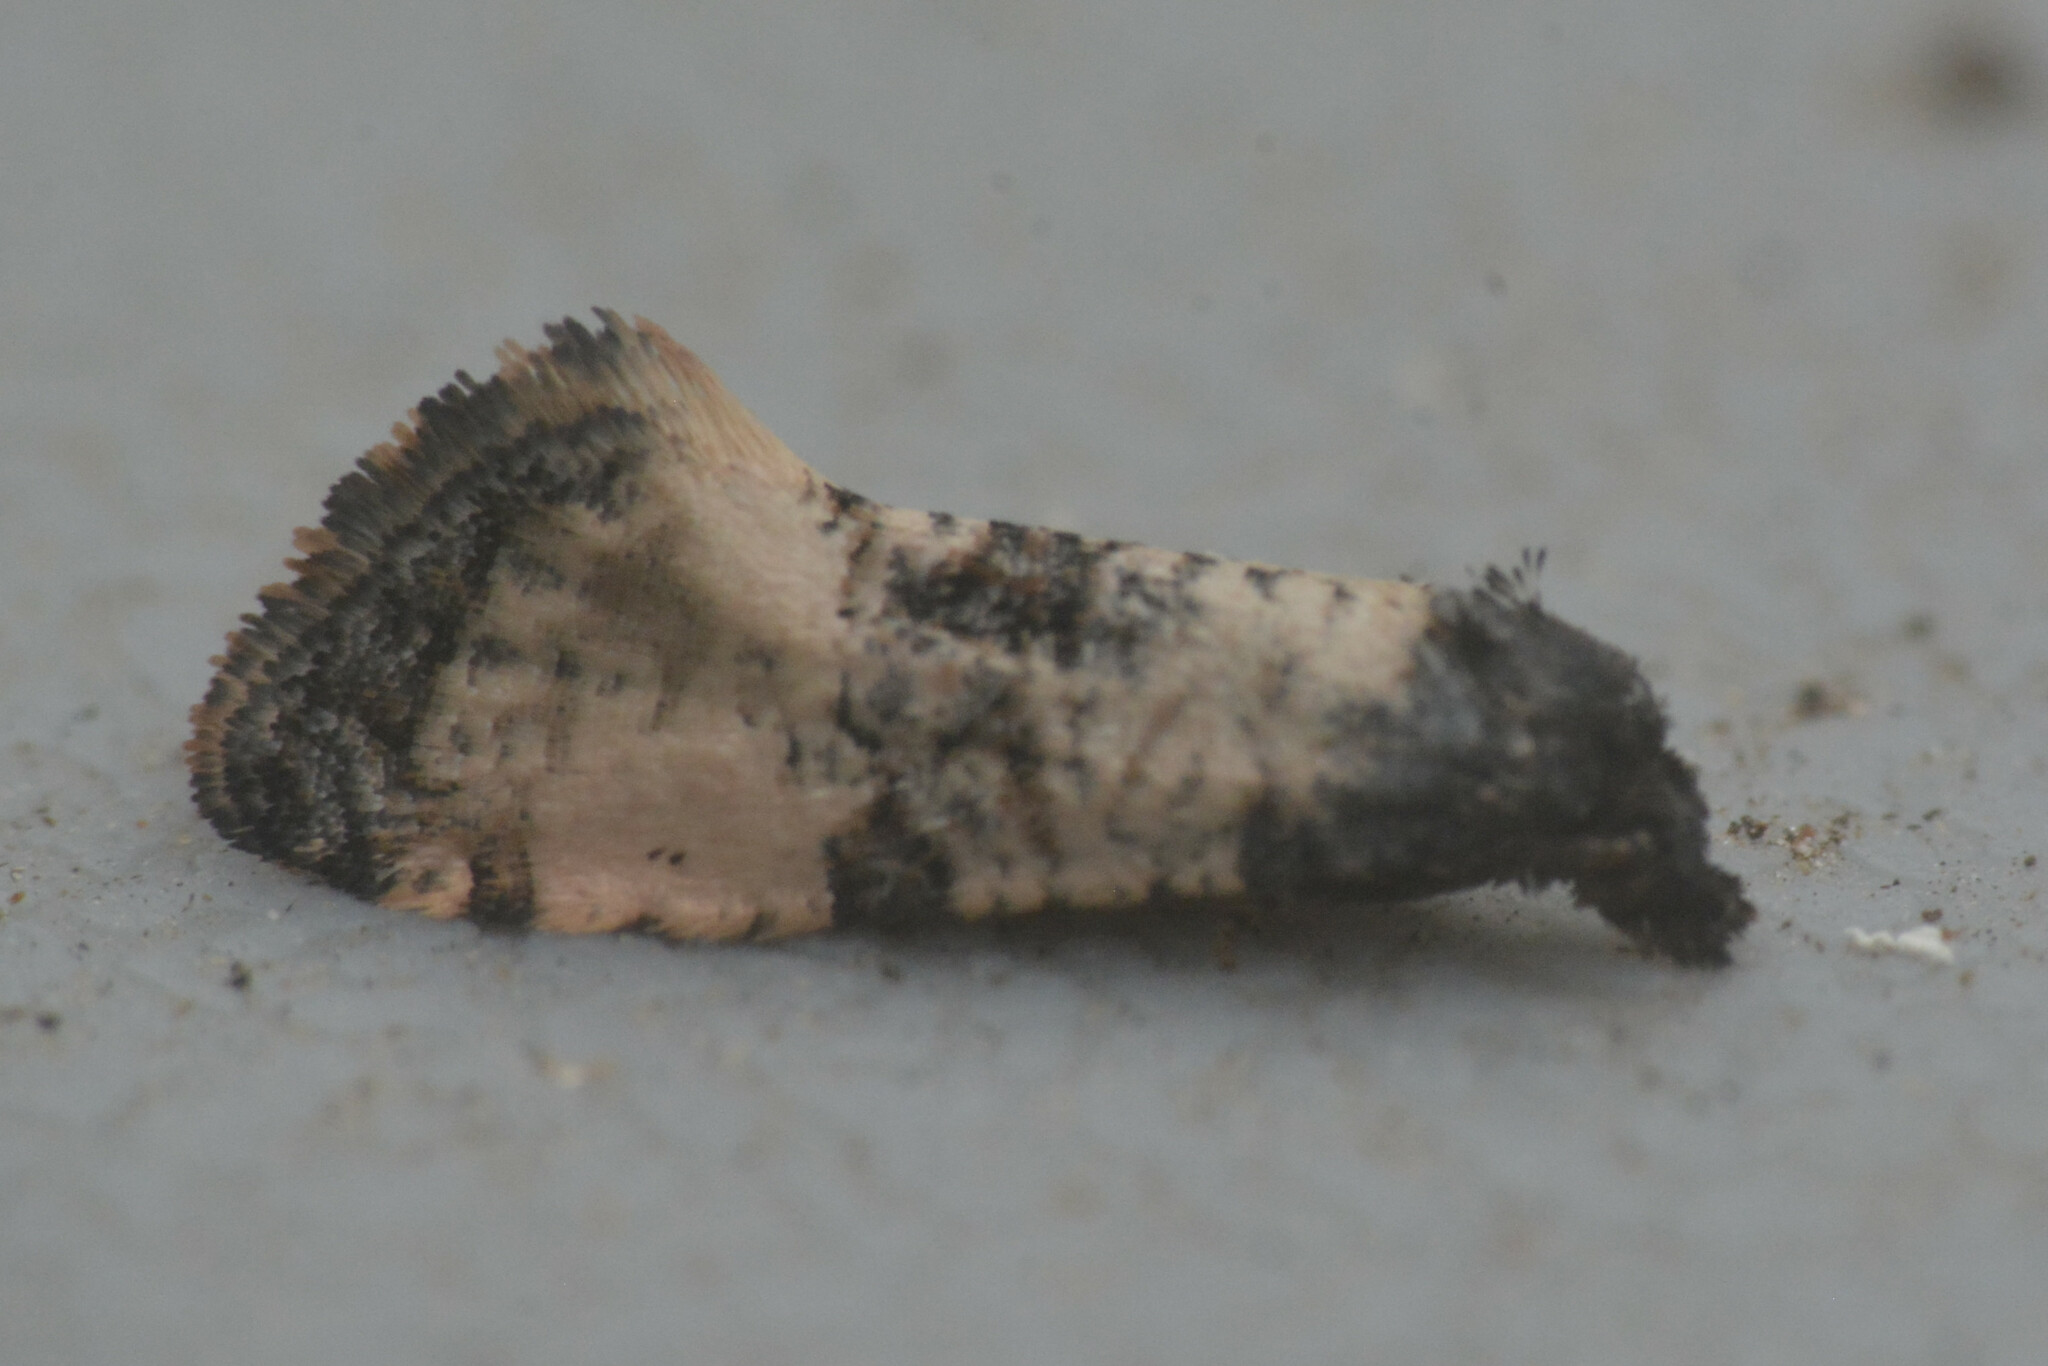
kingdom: Animalia
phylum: Arthropoda
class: Insecta
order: Lepidoptera
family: Tortricidae
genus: Cochylis
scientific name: Cochylis atricapitana
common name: Tortricid moth
